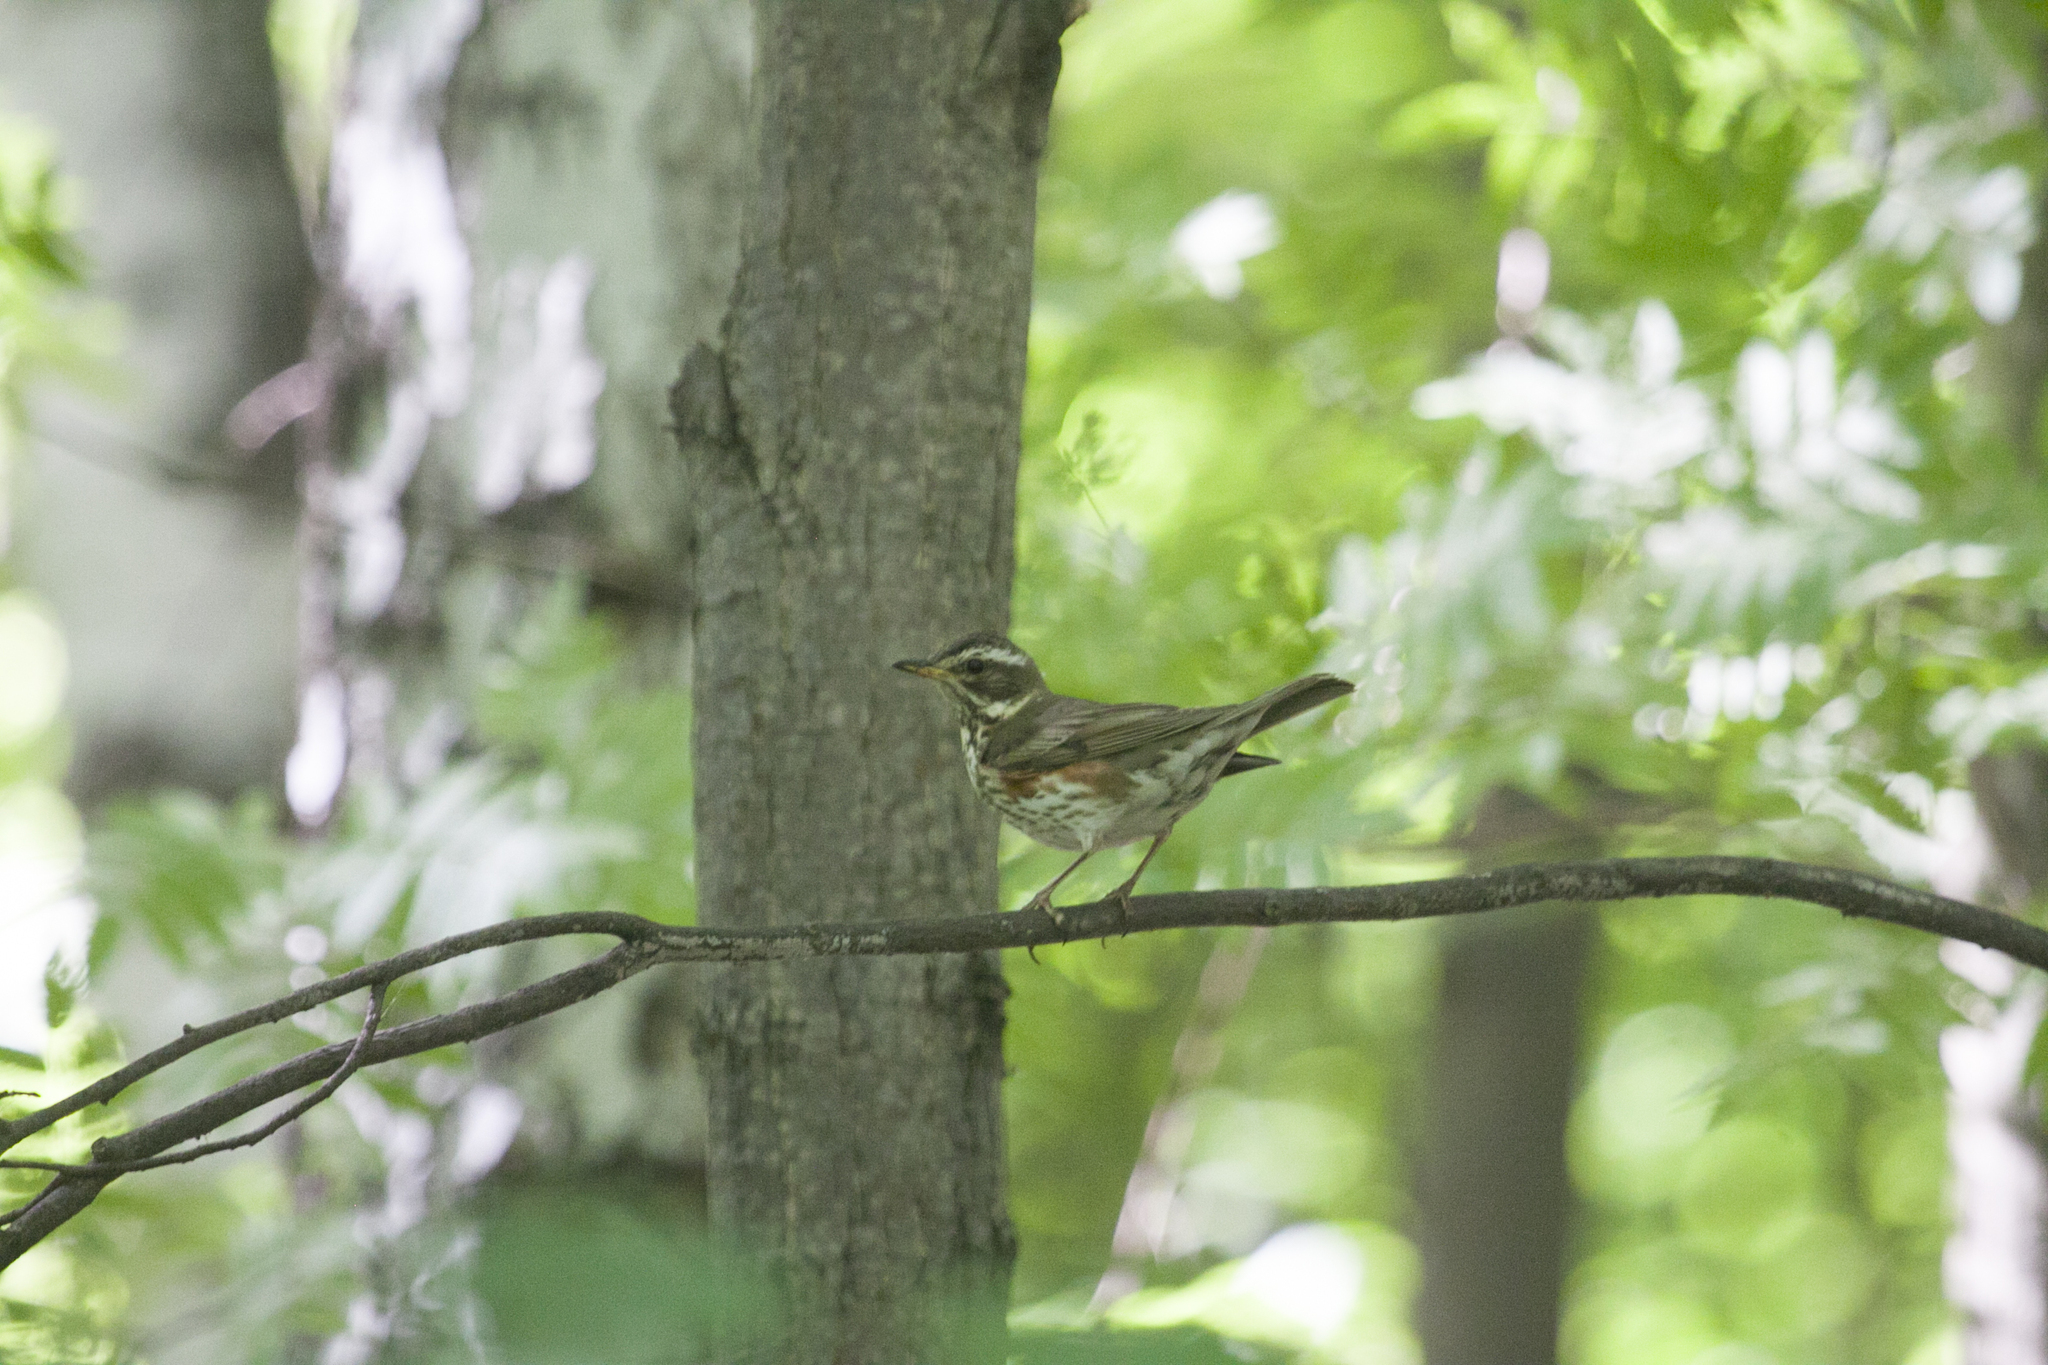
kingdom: Animalia
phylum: Chordata
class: Aves
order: Passeriformes
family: Turdidae
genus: Turdus
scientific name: Turdus iliacus
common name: Redwing
